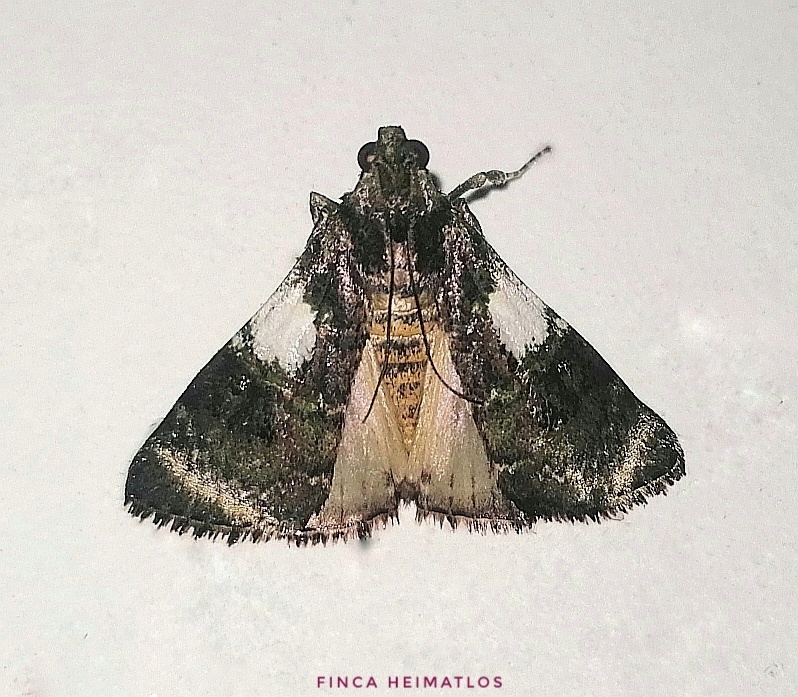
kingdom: Animalia
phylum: Arthropoda
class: Insecta
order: Lepidoptera
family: Pyralidae
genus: Accinctapubes
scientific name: Accinctapubes albifasciata
